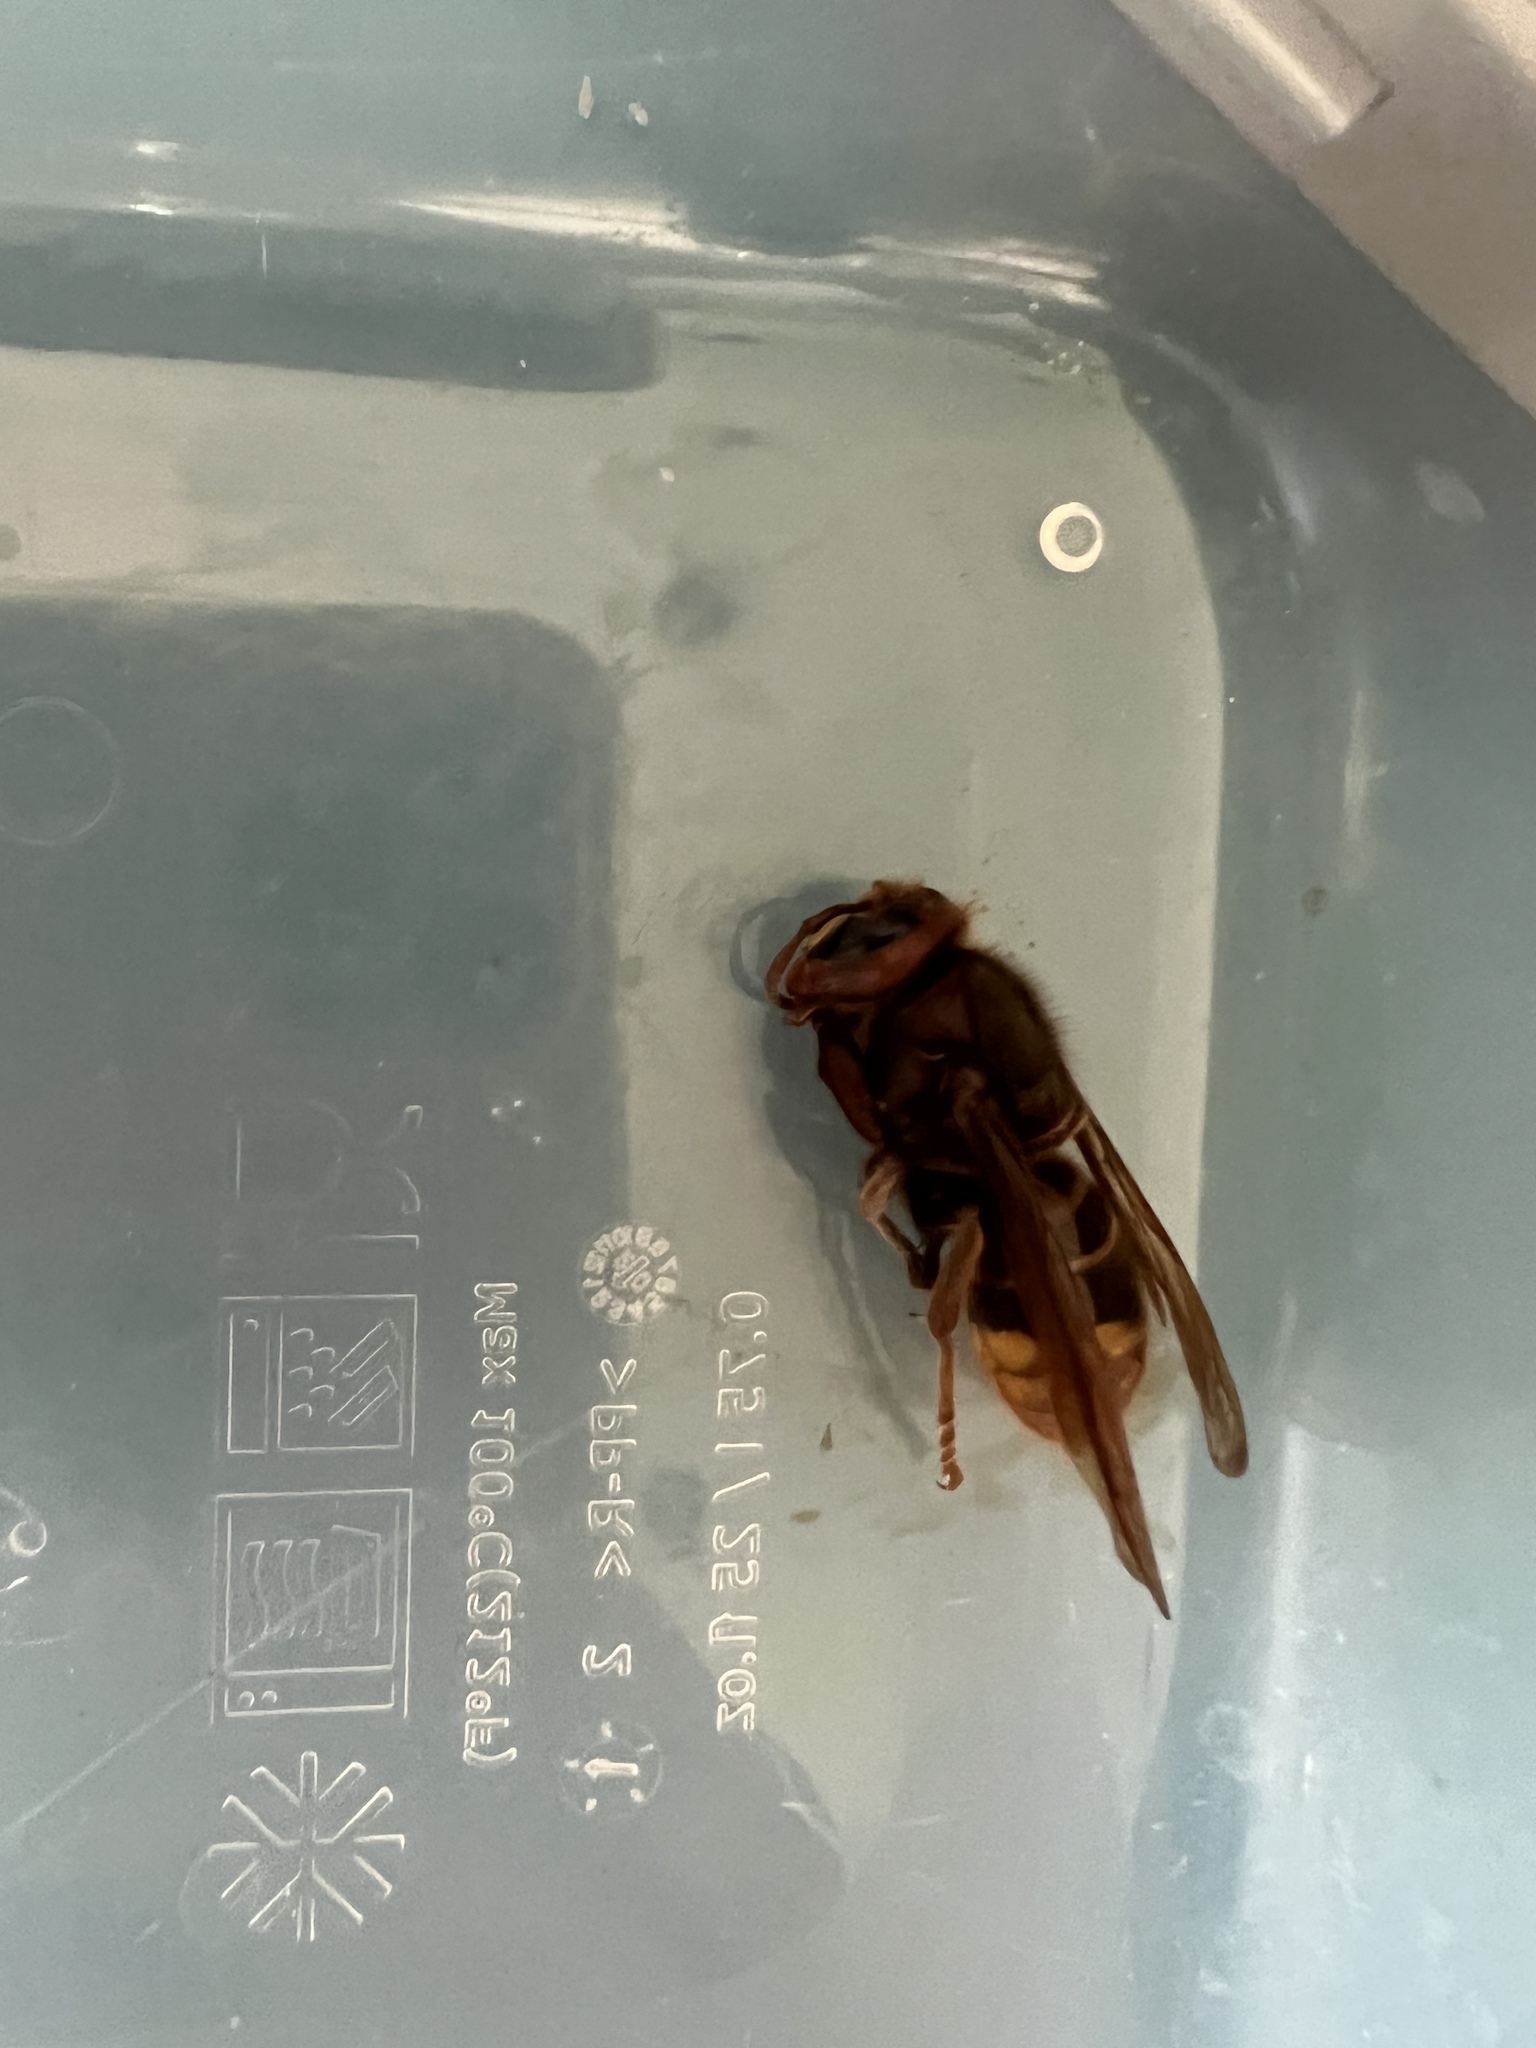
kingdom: Animalia
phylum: Arthropoda
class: Insecta
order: Hymenoptera
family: Vespidae
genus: Vespa
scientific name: Vespa crabro
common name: Hornet
